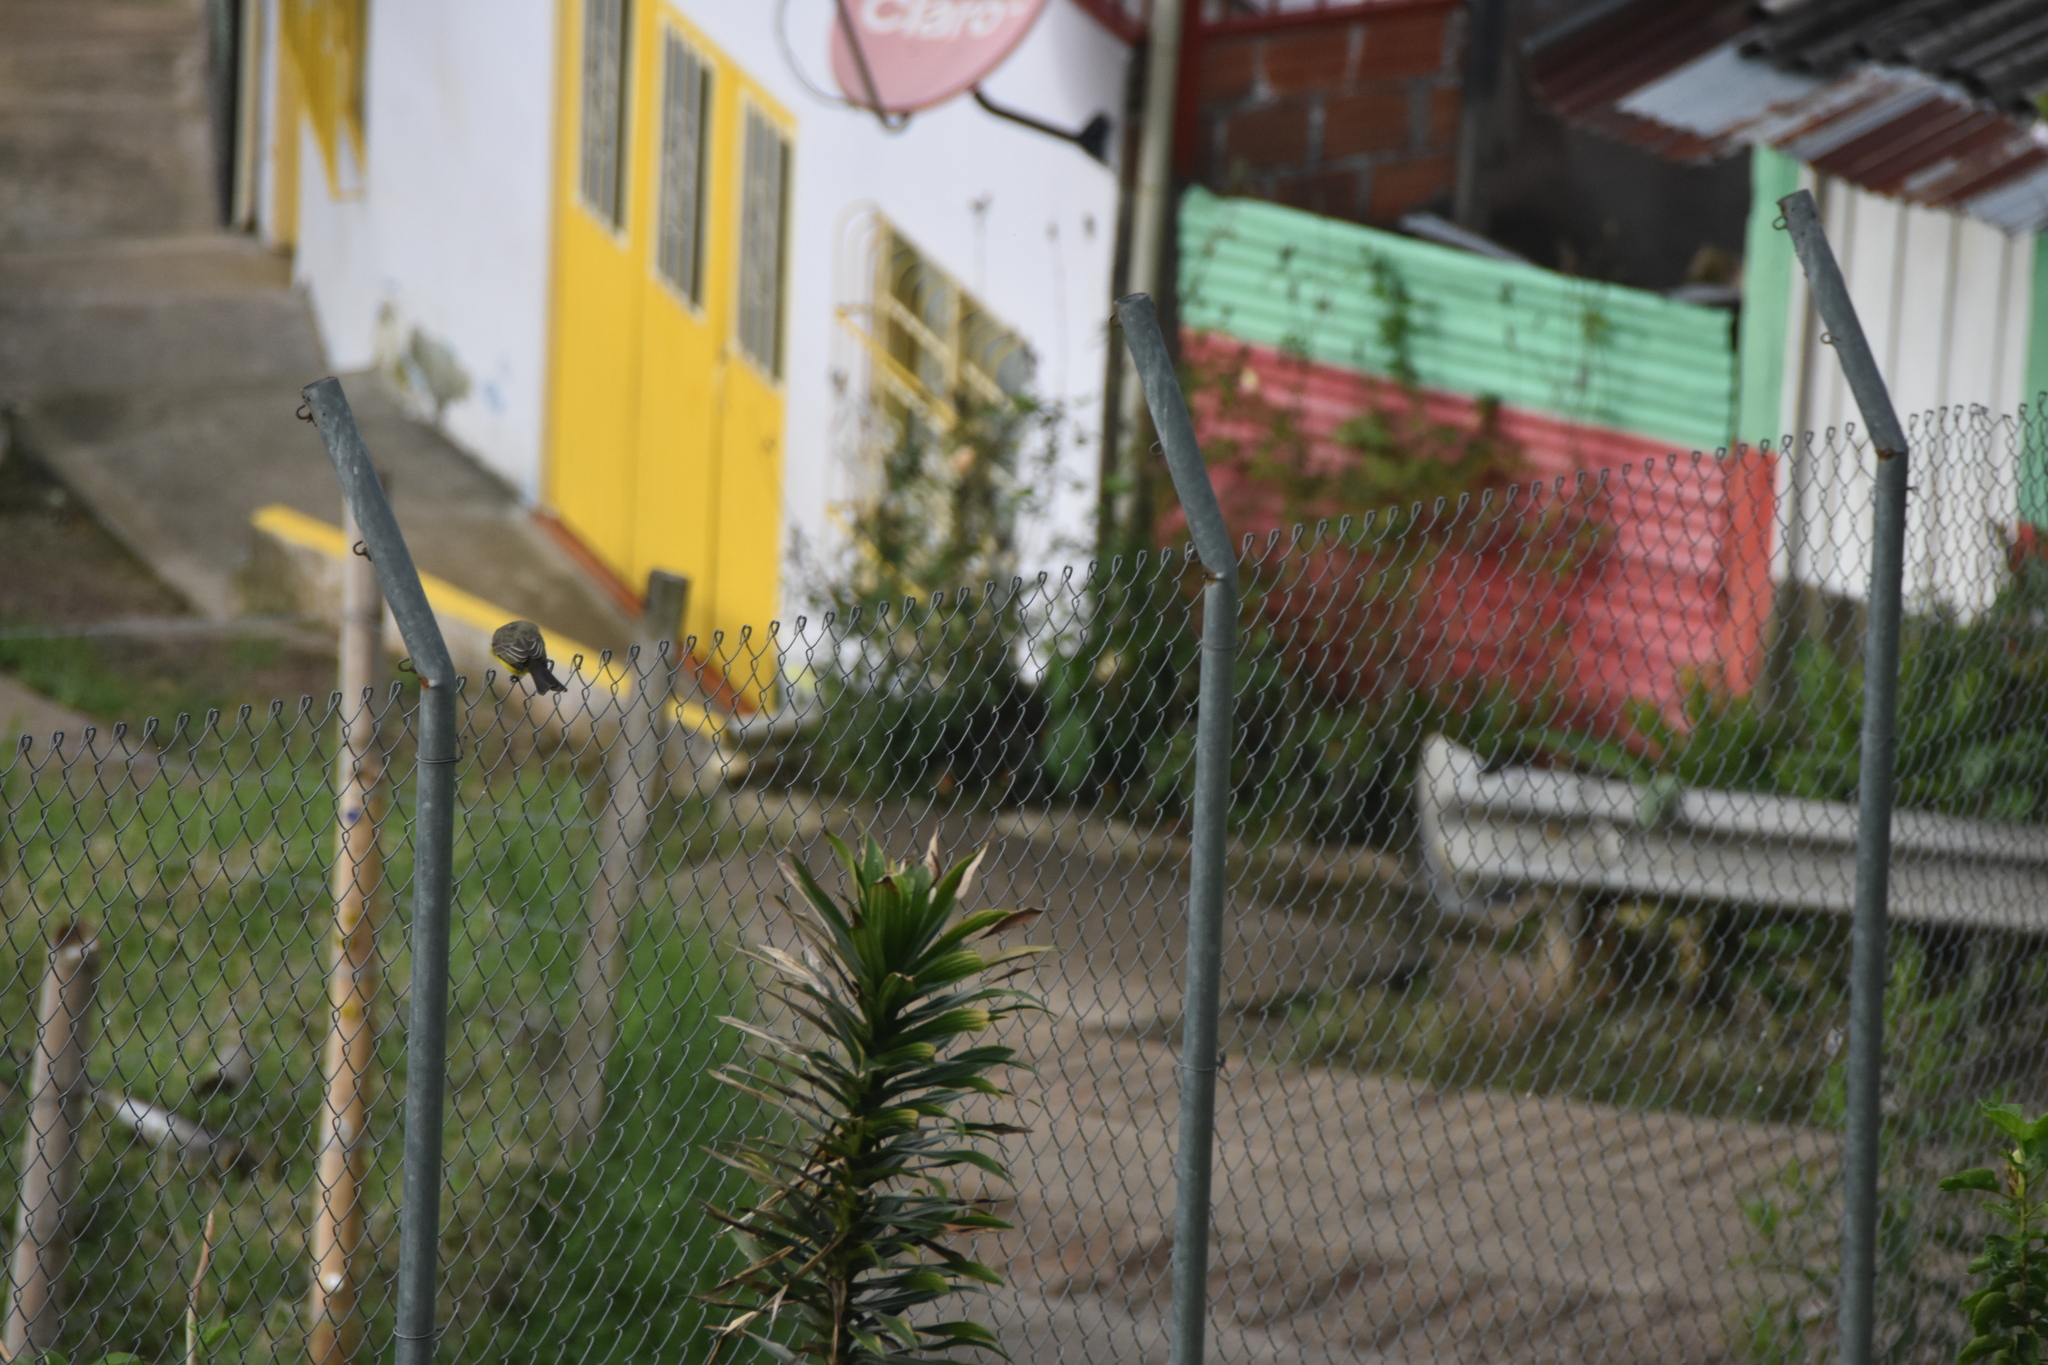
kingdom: Animalia
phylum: Chordata
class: Aves
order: Passeriformes
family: Tyrannidae
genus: Tyrannus
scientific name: Tyrannus melancholicus
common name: Tropical kingbird
